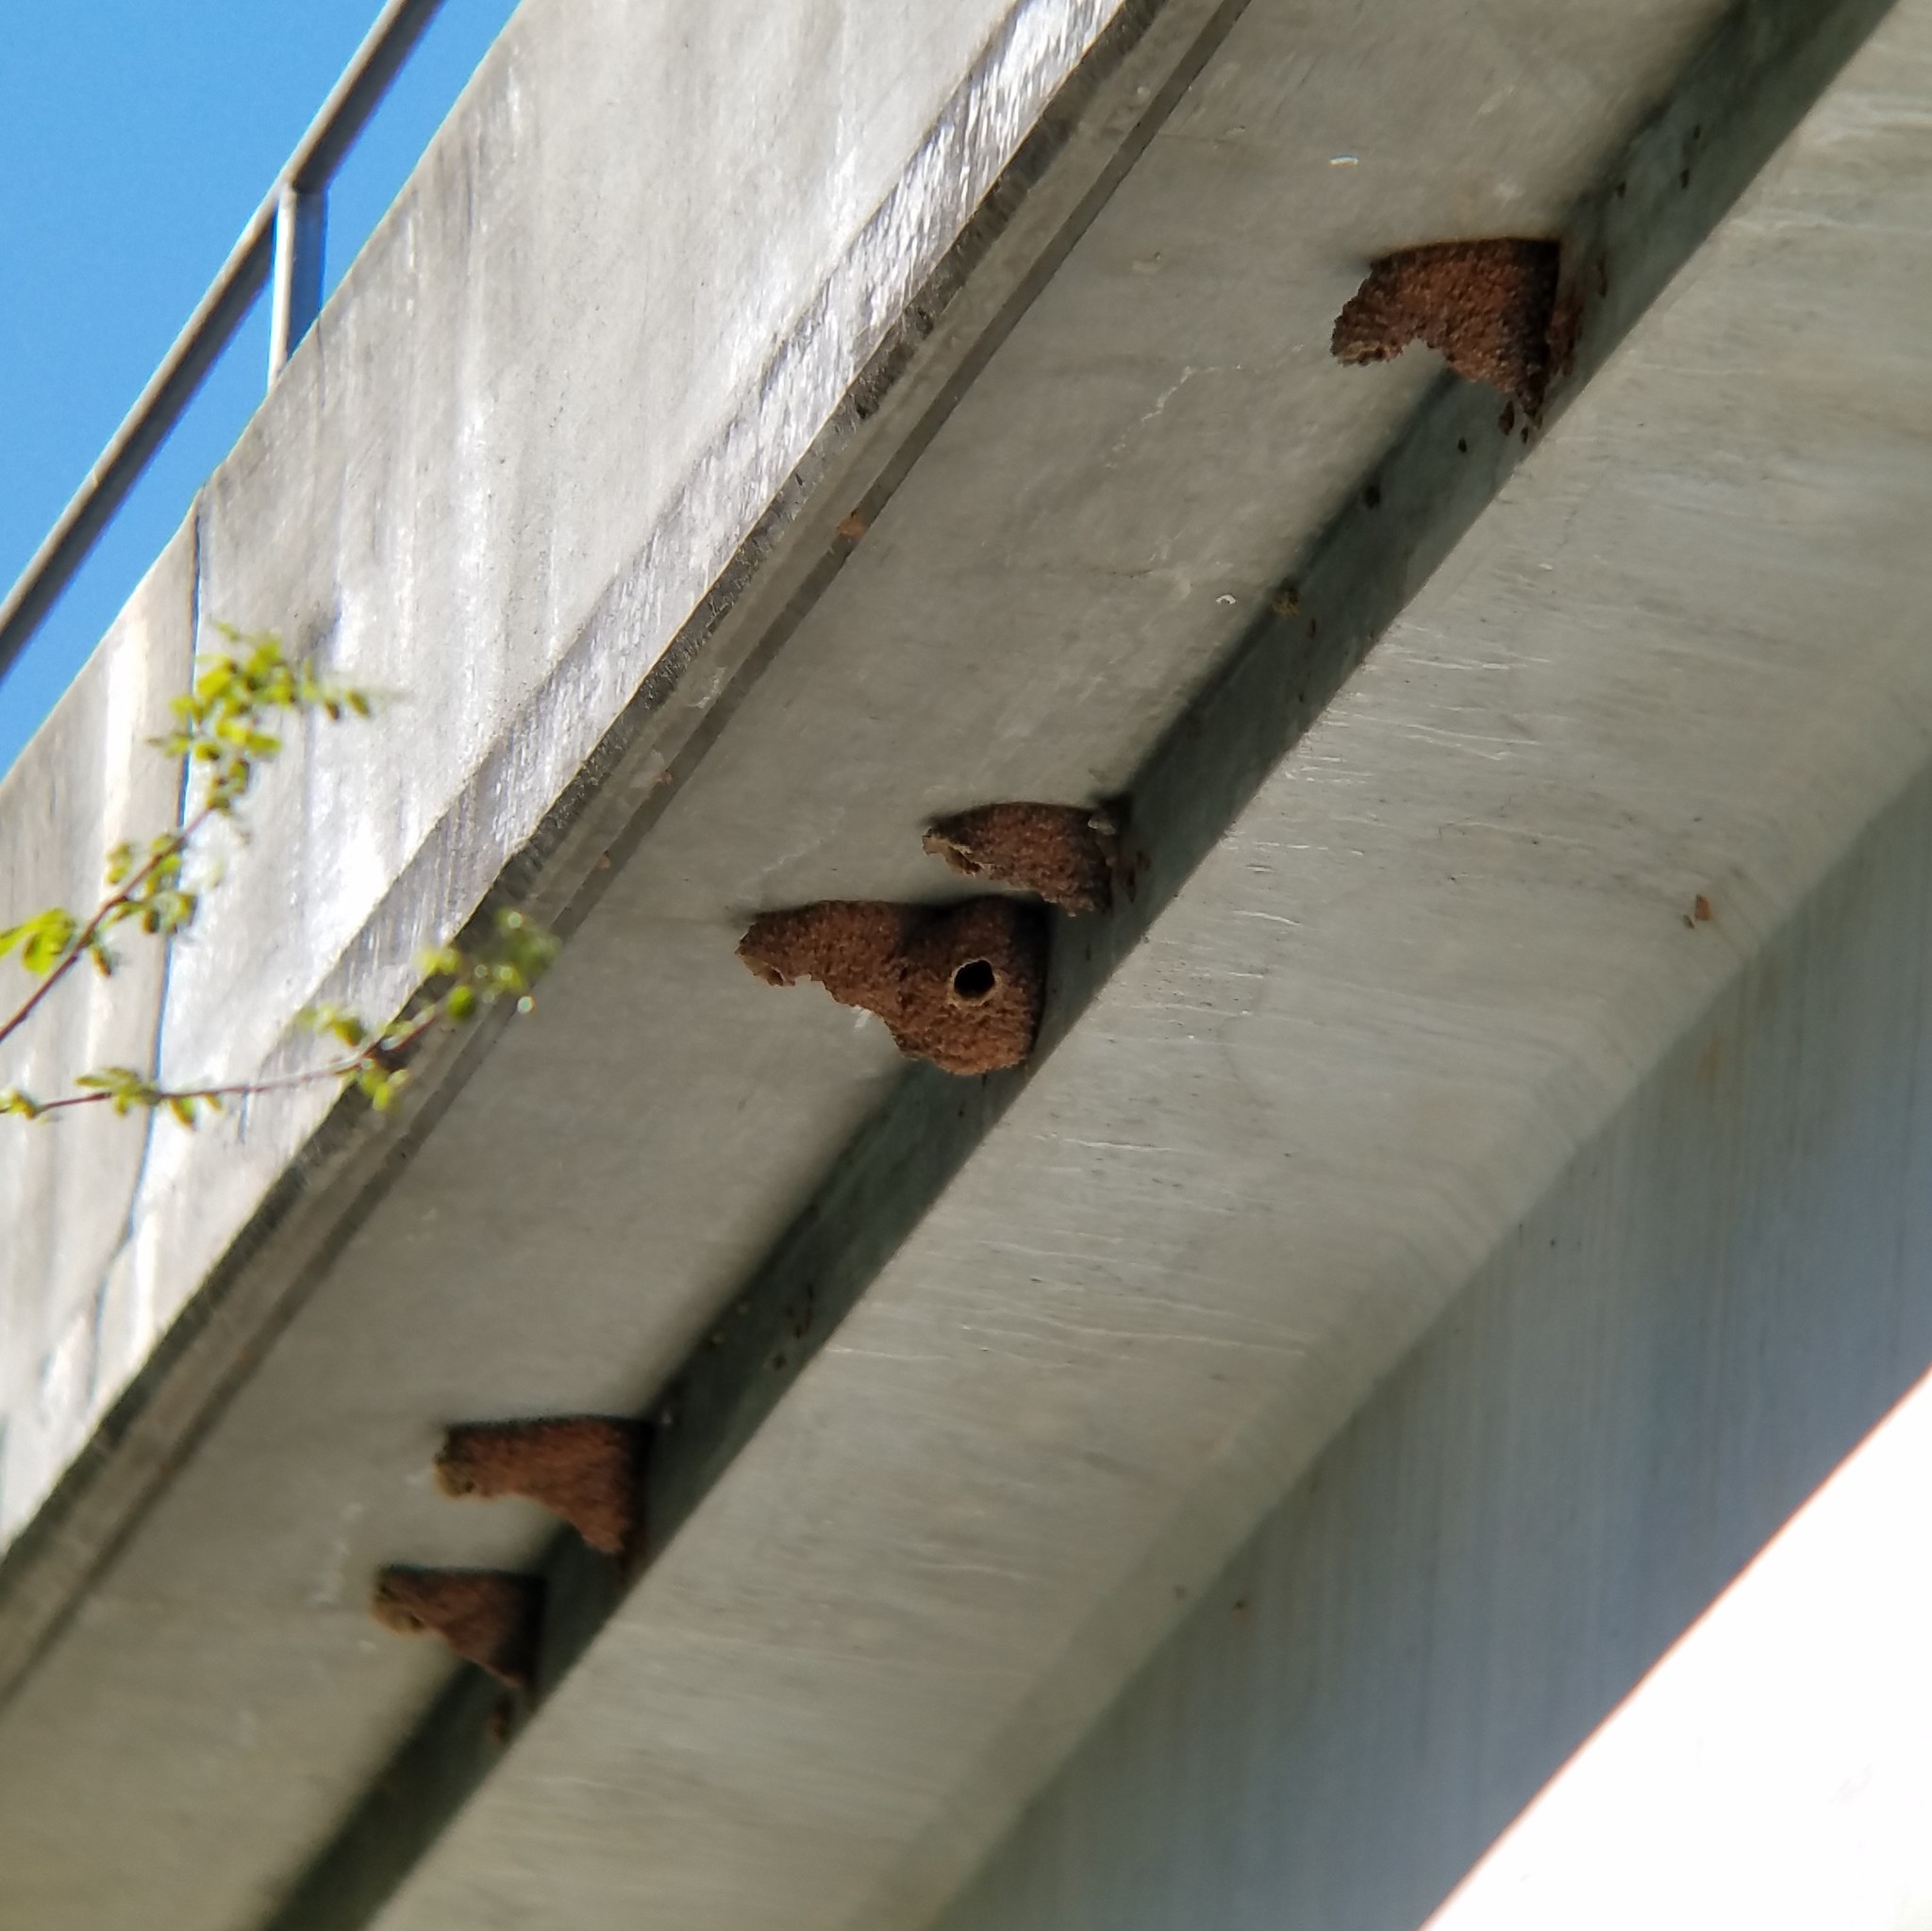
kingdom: Animalia
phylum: Chordata
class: Aves
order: Passeriformes
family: Hirundinidae
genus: Petrochelidon
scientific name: Petrochelidon pyrrhonota
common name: American cliff swallow
